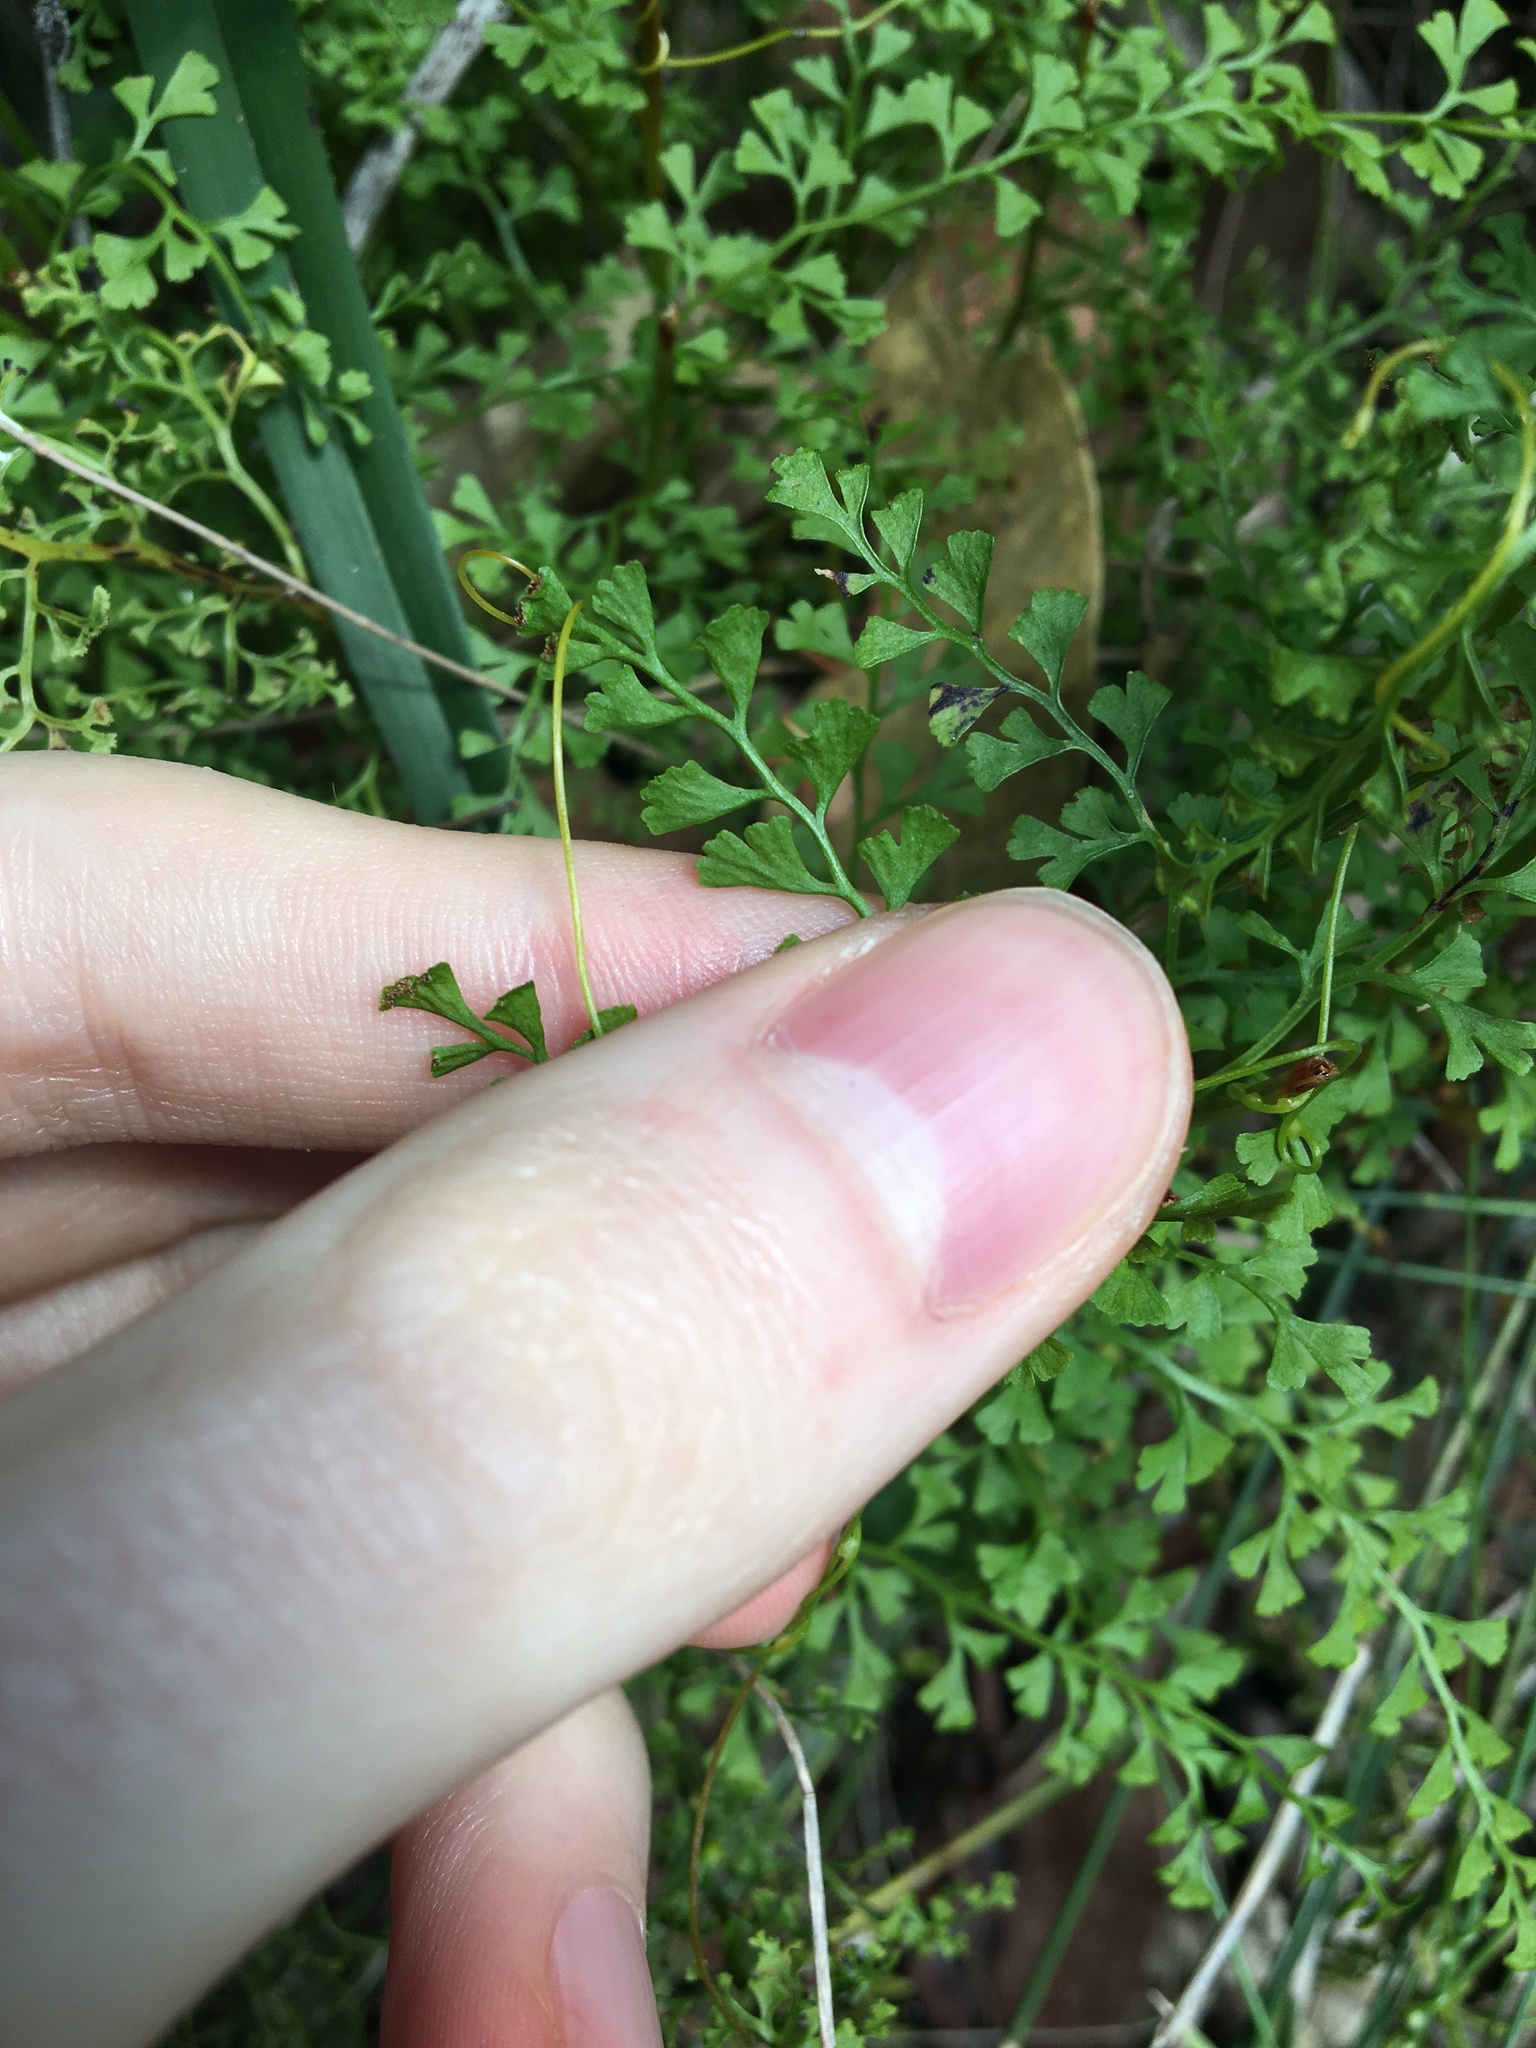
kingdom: Plantae
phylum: Tracheophyta
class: Polypodiopsida
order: Polypodiales
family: Lindsaeaceae
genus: Lindsaea
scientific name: Lindsaea microphylla
